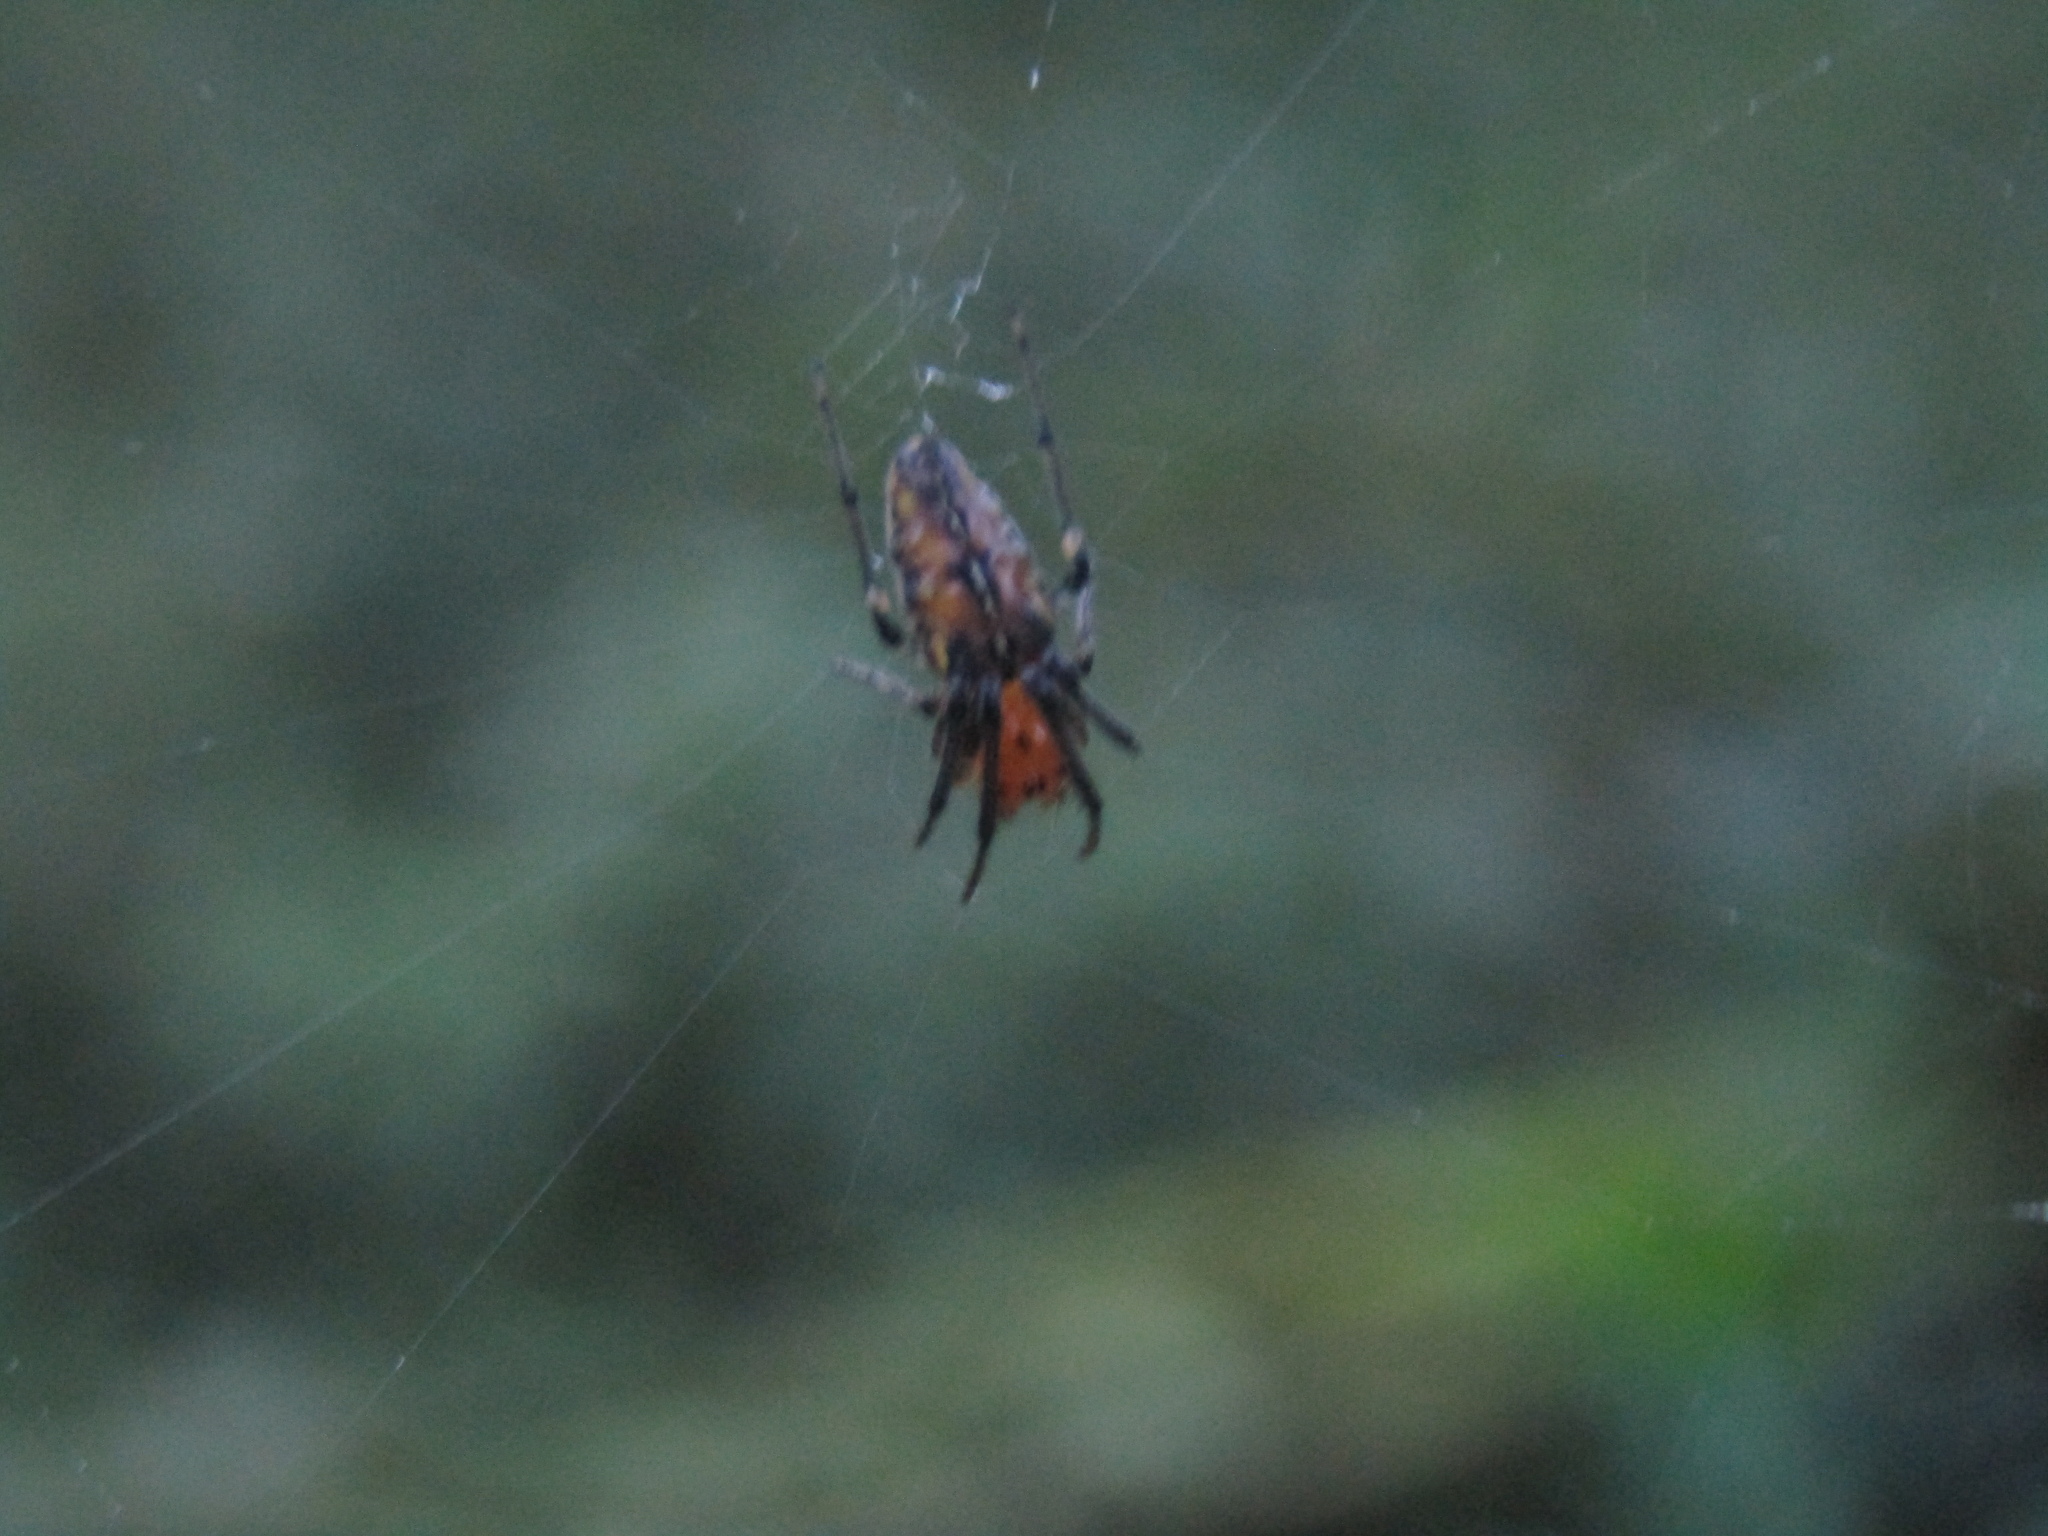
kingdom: Animalia
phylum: Arthropoda
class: Arachnida
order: Araneae
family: Araneidae
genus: Alpaida
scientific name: Alpaida scriba
